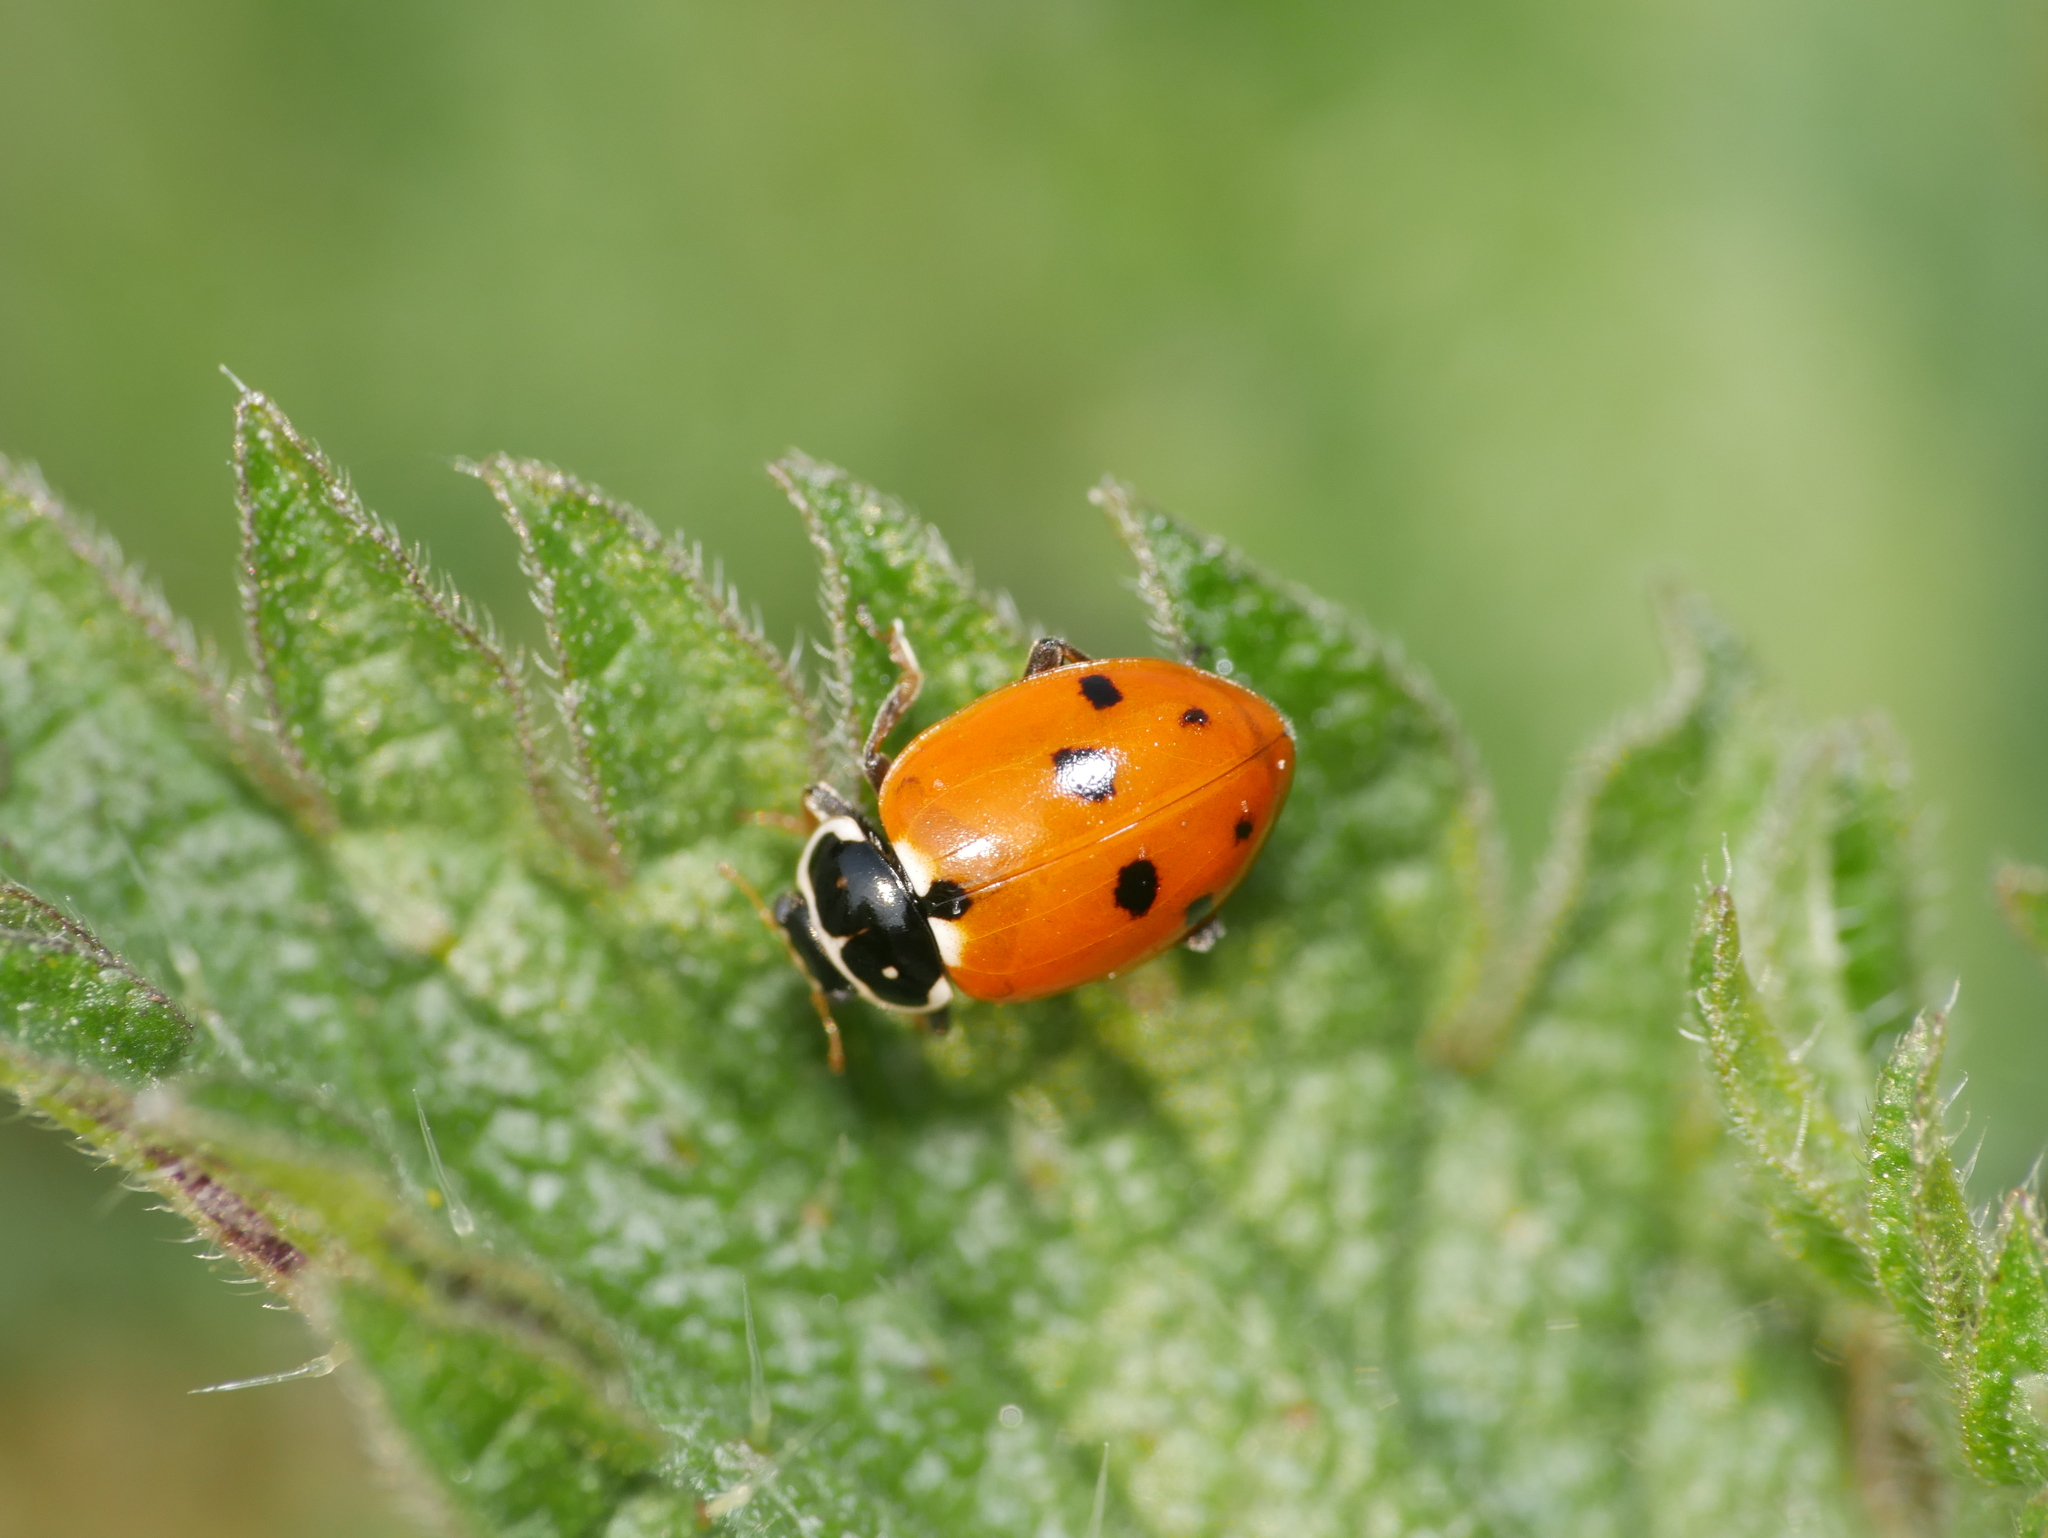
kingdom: Animalia
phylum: Arthropoda
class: Insecta
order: Coleoptera
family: Coccinellidae
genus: Hippodamia
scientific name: Hippodamia variegata
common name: Ladybird beetle
